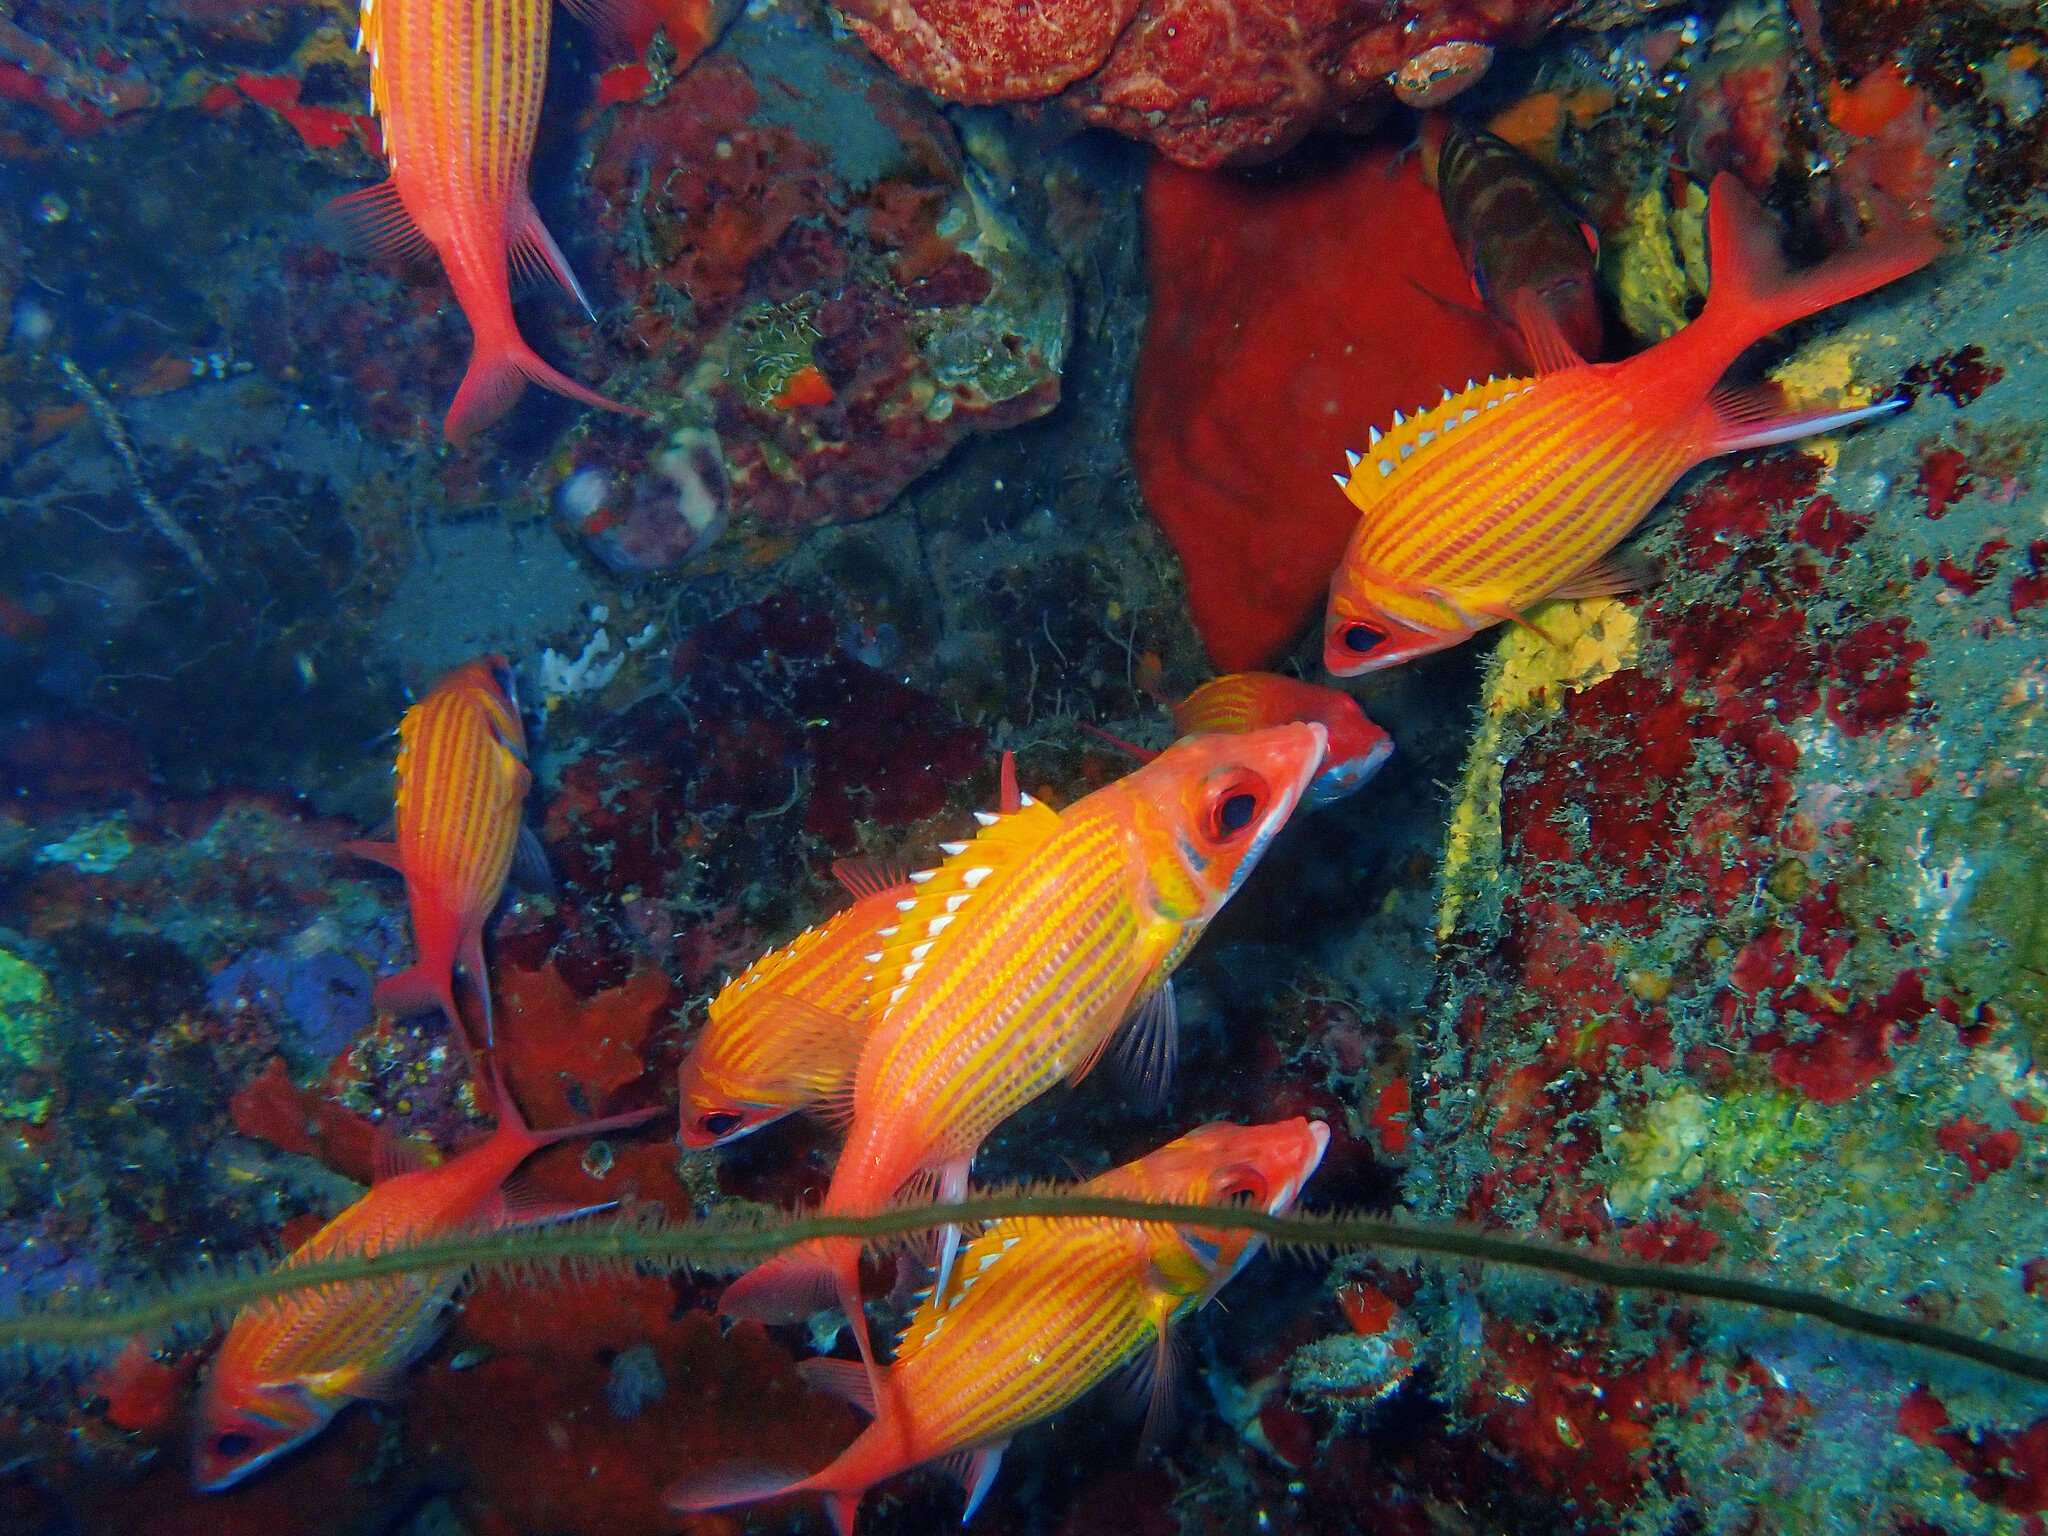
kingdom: Animalia
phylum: Chordata
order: Beryciformes
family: Holocentridae
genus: Neoniphon
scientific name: Neoniphon marianus
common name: Longjaw squirrelfish
